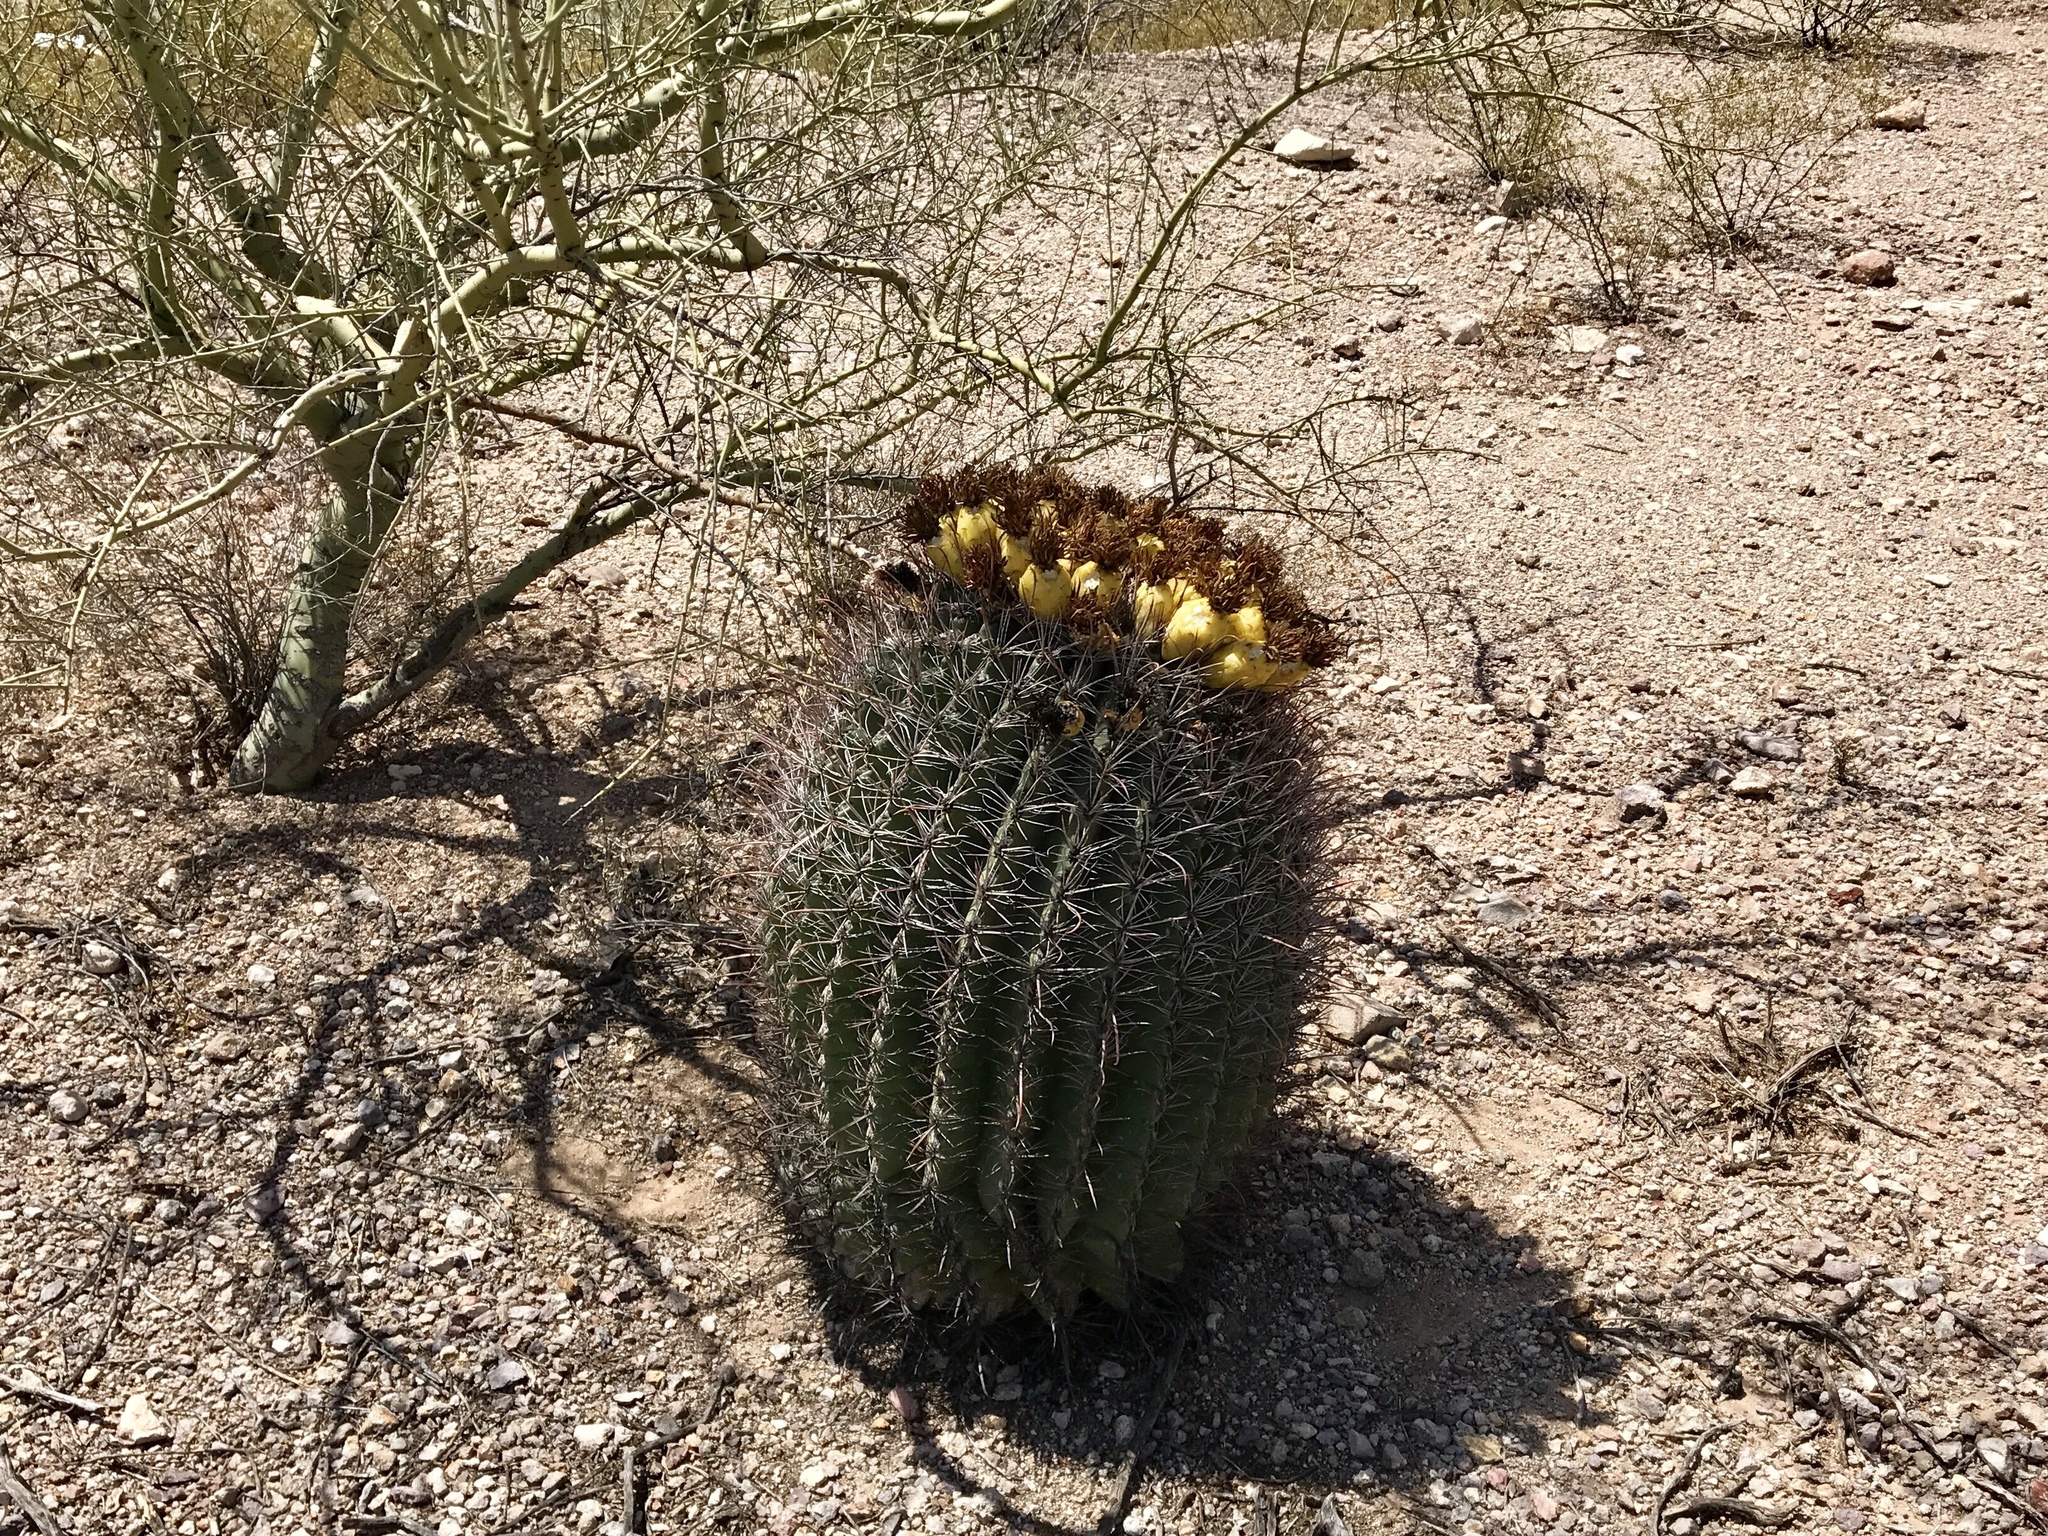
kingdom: Plantae
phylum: Tracheophyta
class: Magnoliopsida
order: Caryophyllales
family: Cactaceae
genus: Ferocactus
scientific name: Ferocactus wislizeni
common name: Candy barrel cactus
